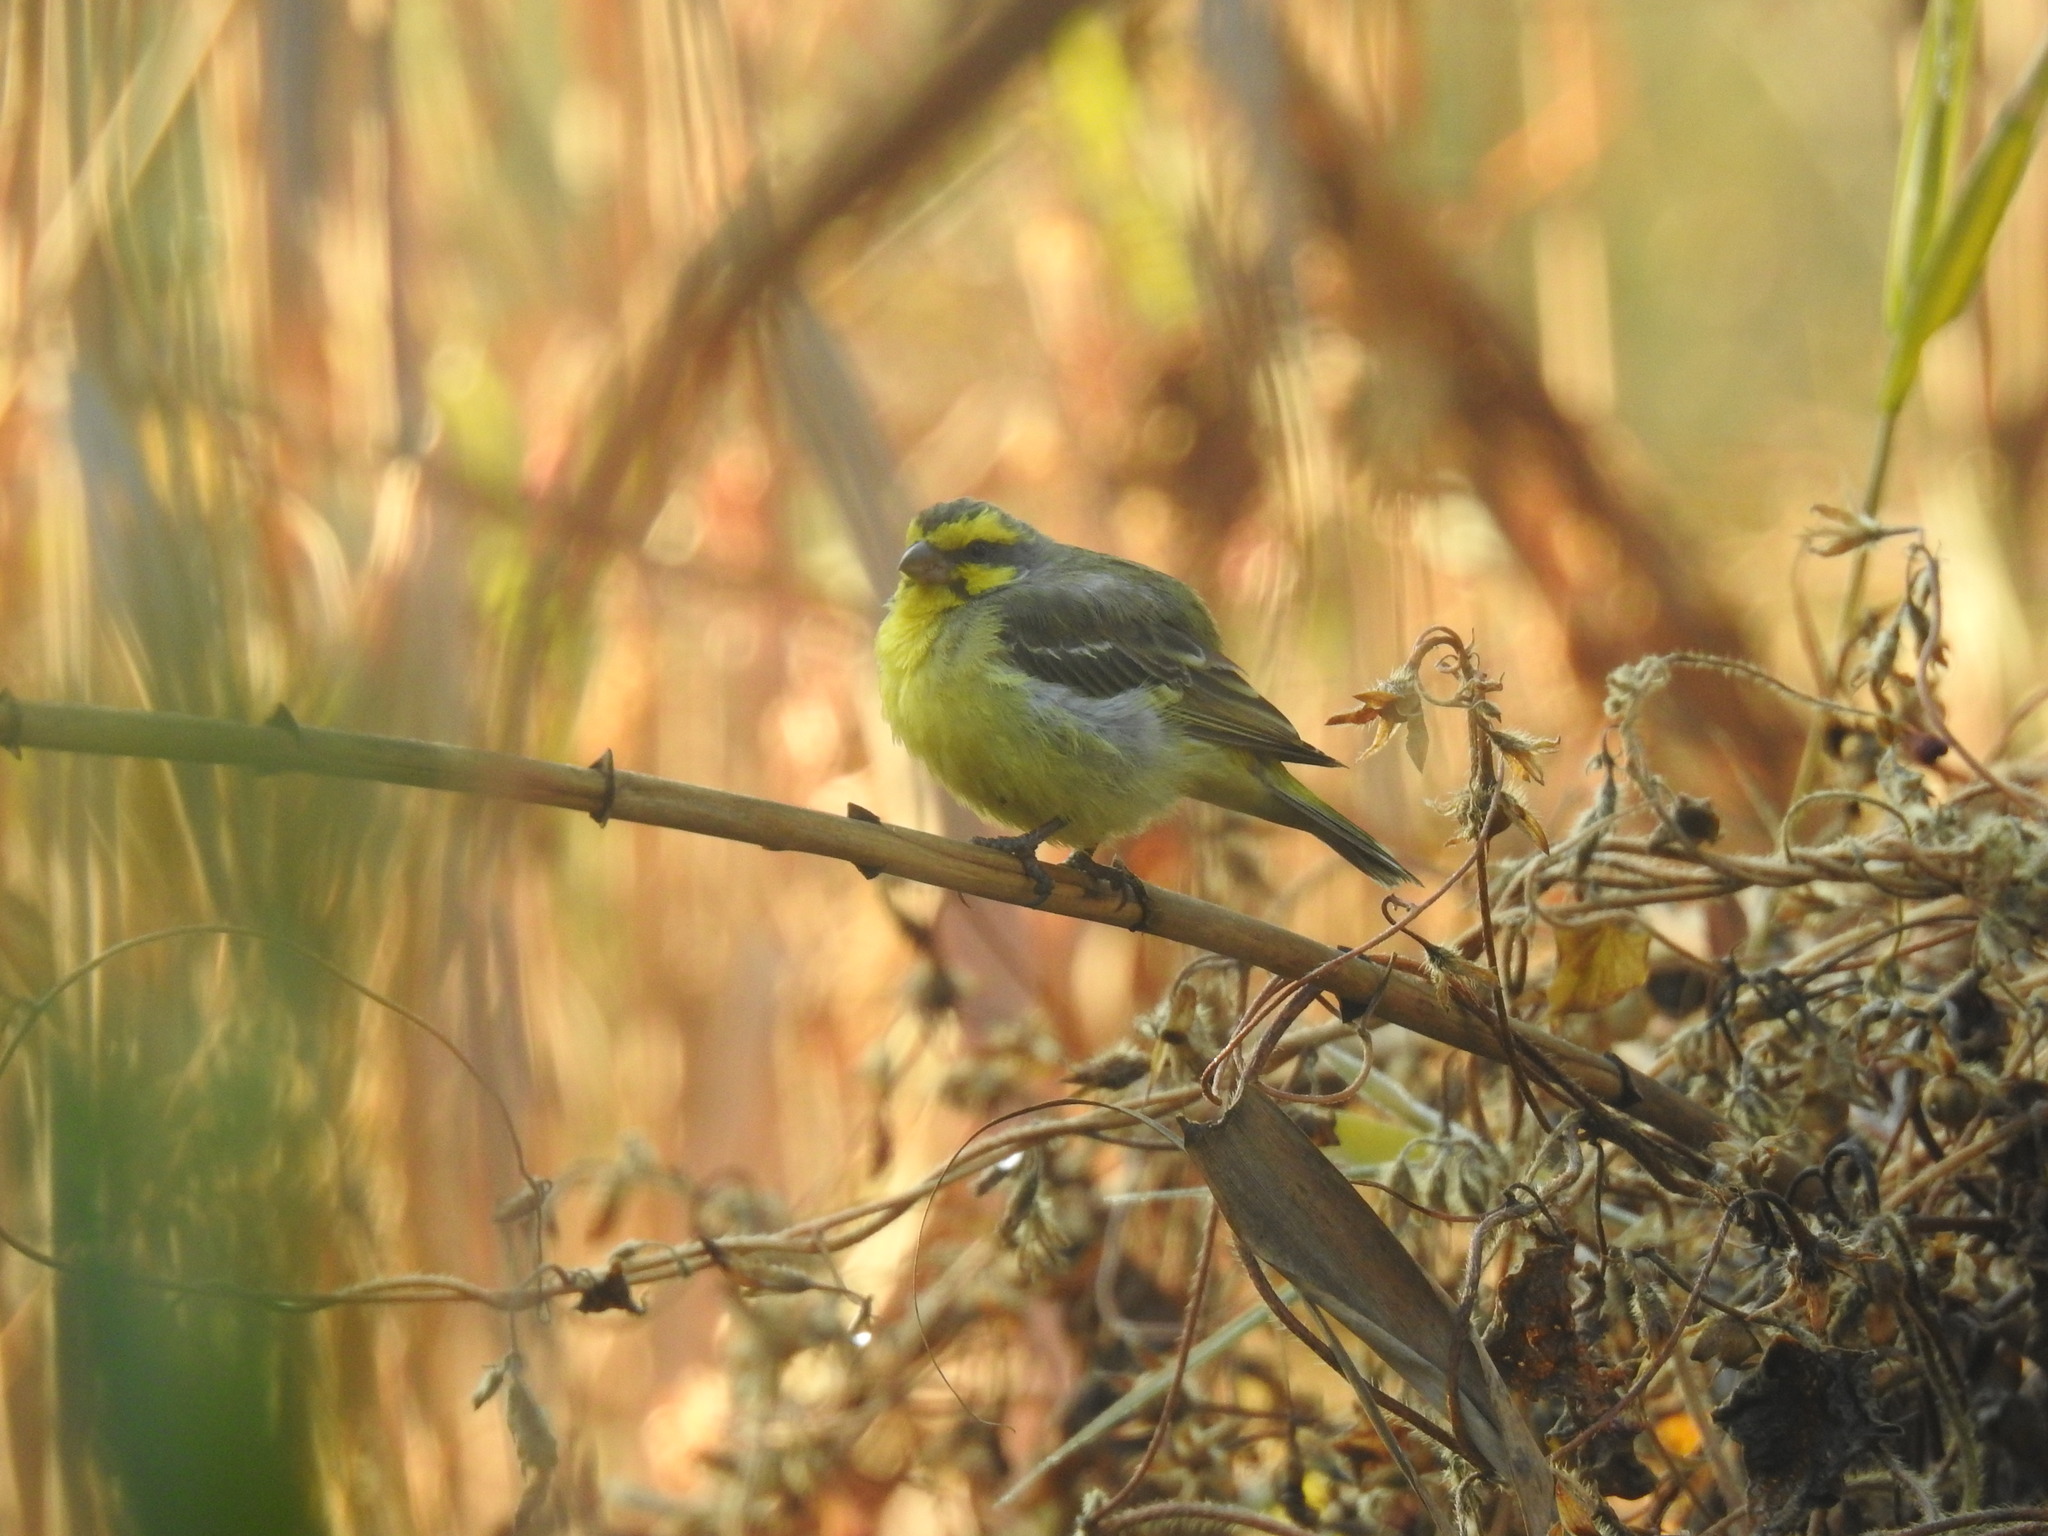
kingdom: Animalia
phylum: Chordata
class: Aves
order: Passeriformes
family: Fringillidae
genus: Crithagra
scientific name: Crithagra mozambica
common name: Yellow-fronted canary
